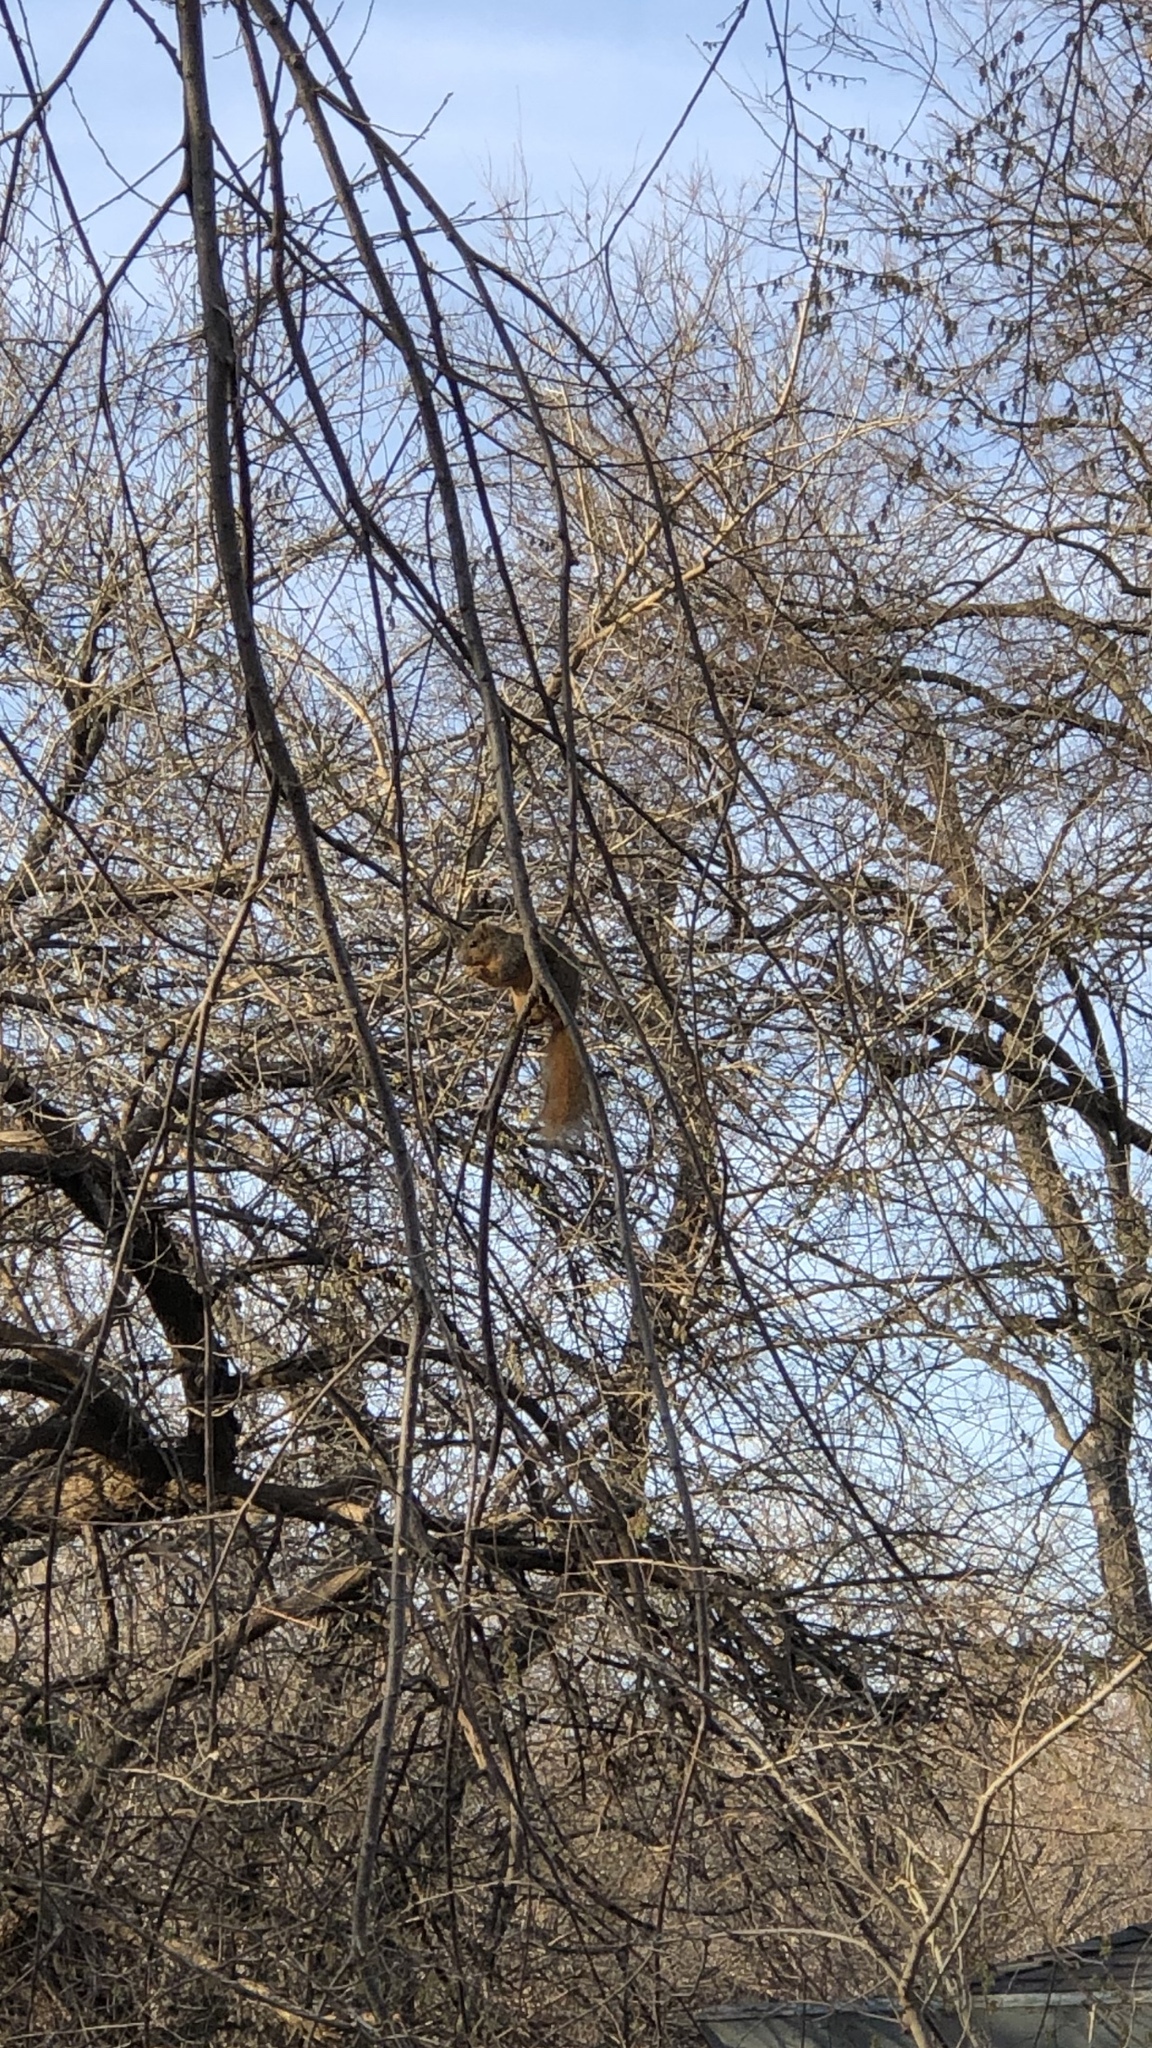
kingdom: Animalia
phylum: Chordata
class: Mammalia
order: Rodentia
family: Sciuridae
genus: Sciurus
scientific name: Sciurus niger
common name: Fox squirrel
